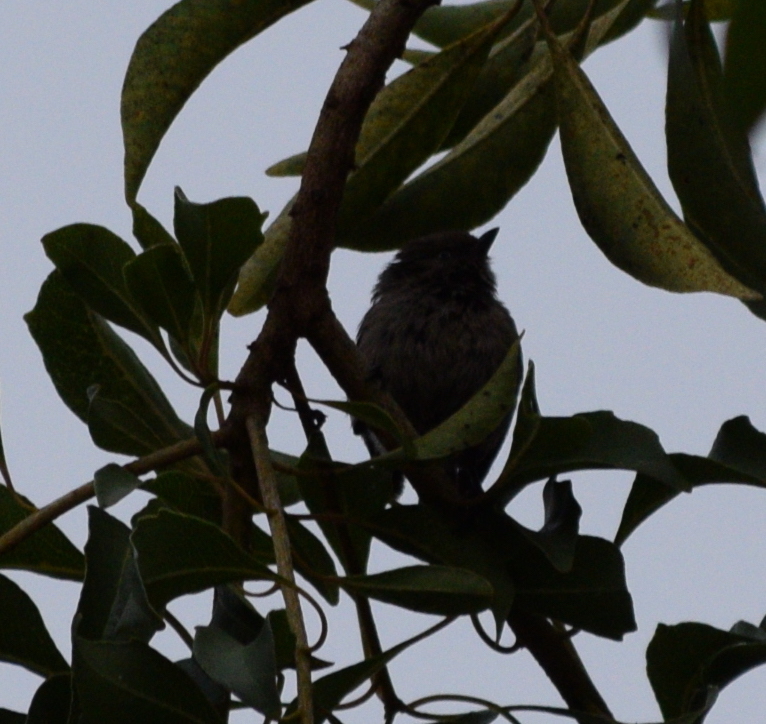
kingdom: Animalia
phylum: Chordata
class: Aves
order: Passeriformes
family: Aegithalidae
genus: Psaltriparus
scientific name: Psaltriparus minimus
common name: American bushtit
